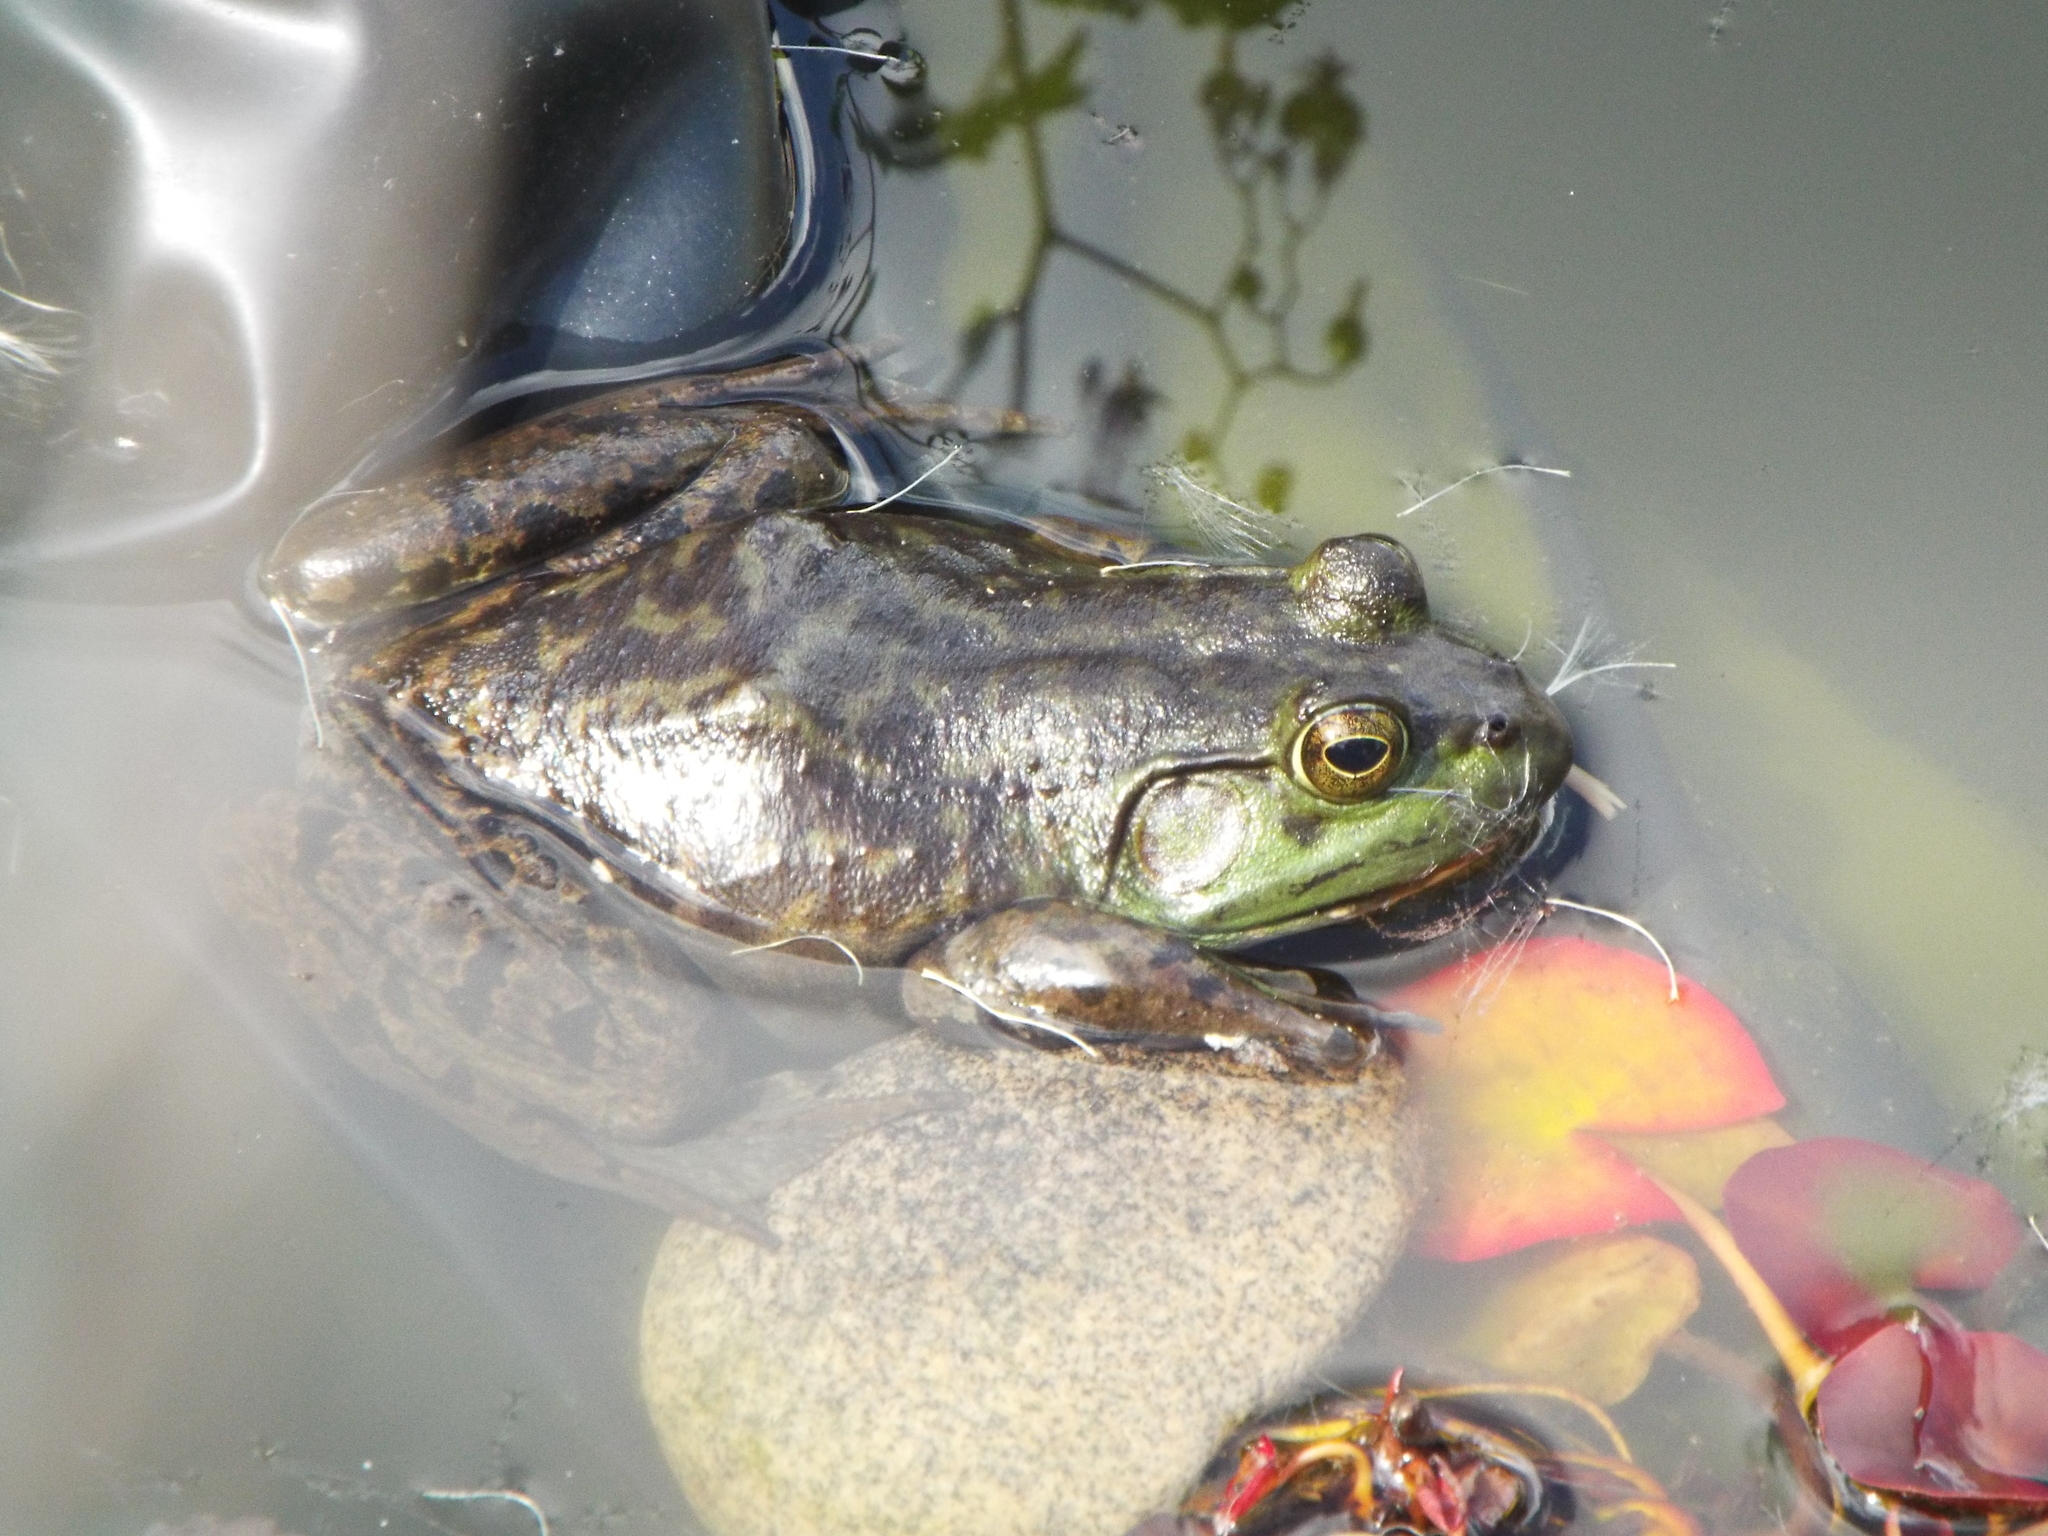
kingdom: Animalia
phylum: Chordata
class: Amphibia
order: Anura
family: Ranidae
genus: Lithobates
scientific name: Lithobates catesbeianus
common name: American bullfrog
